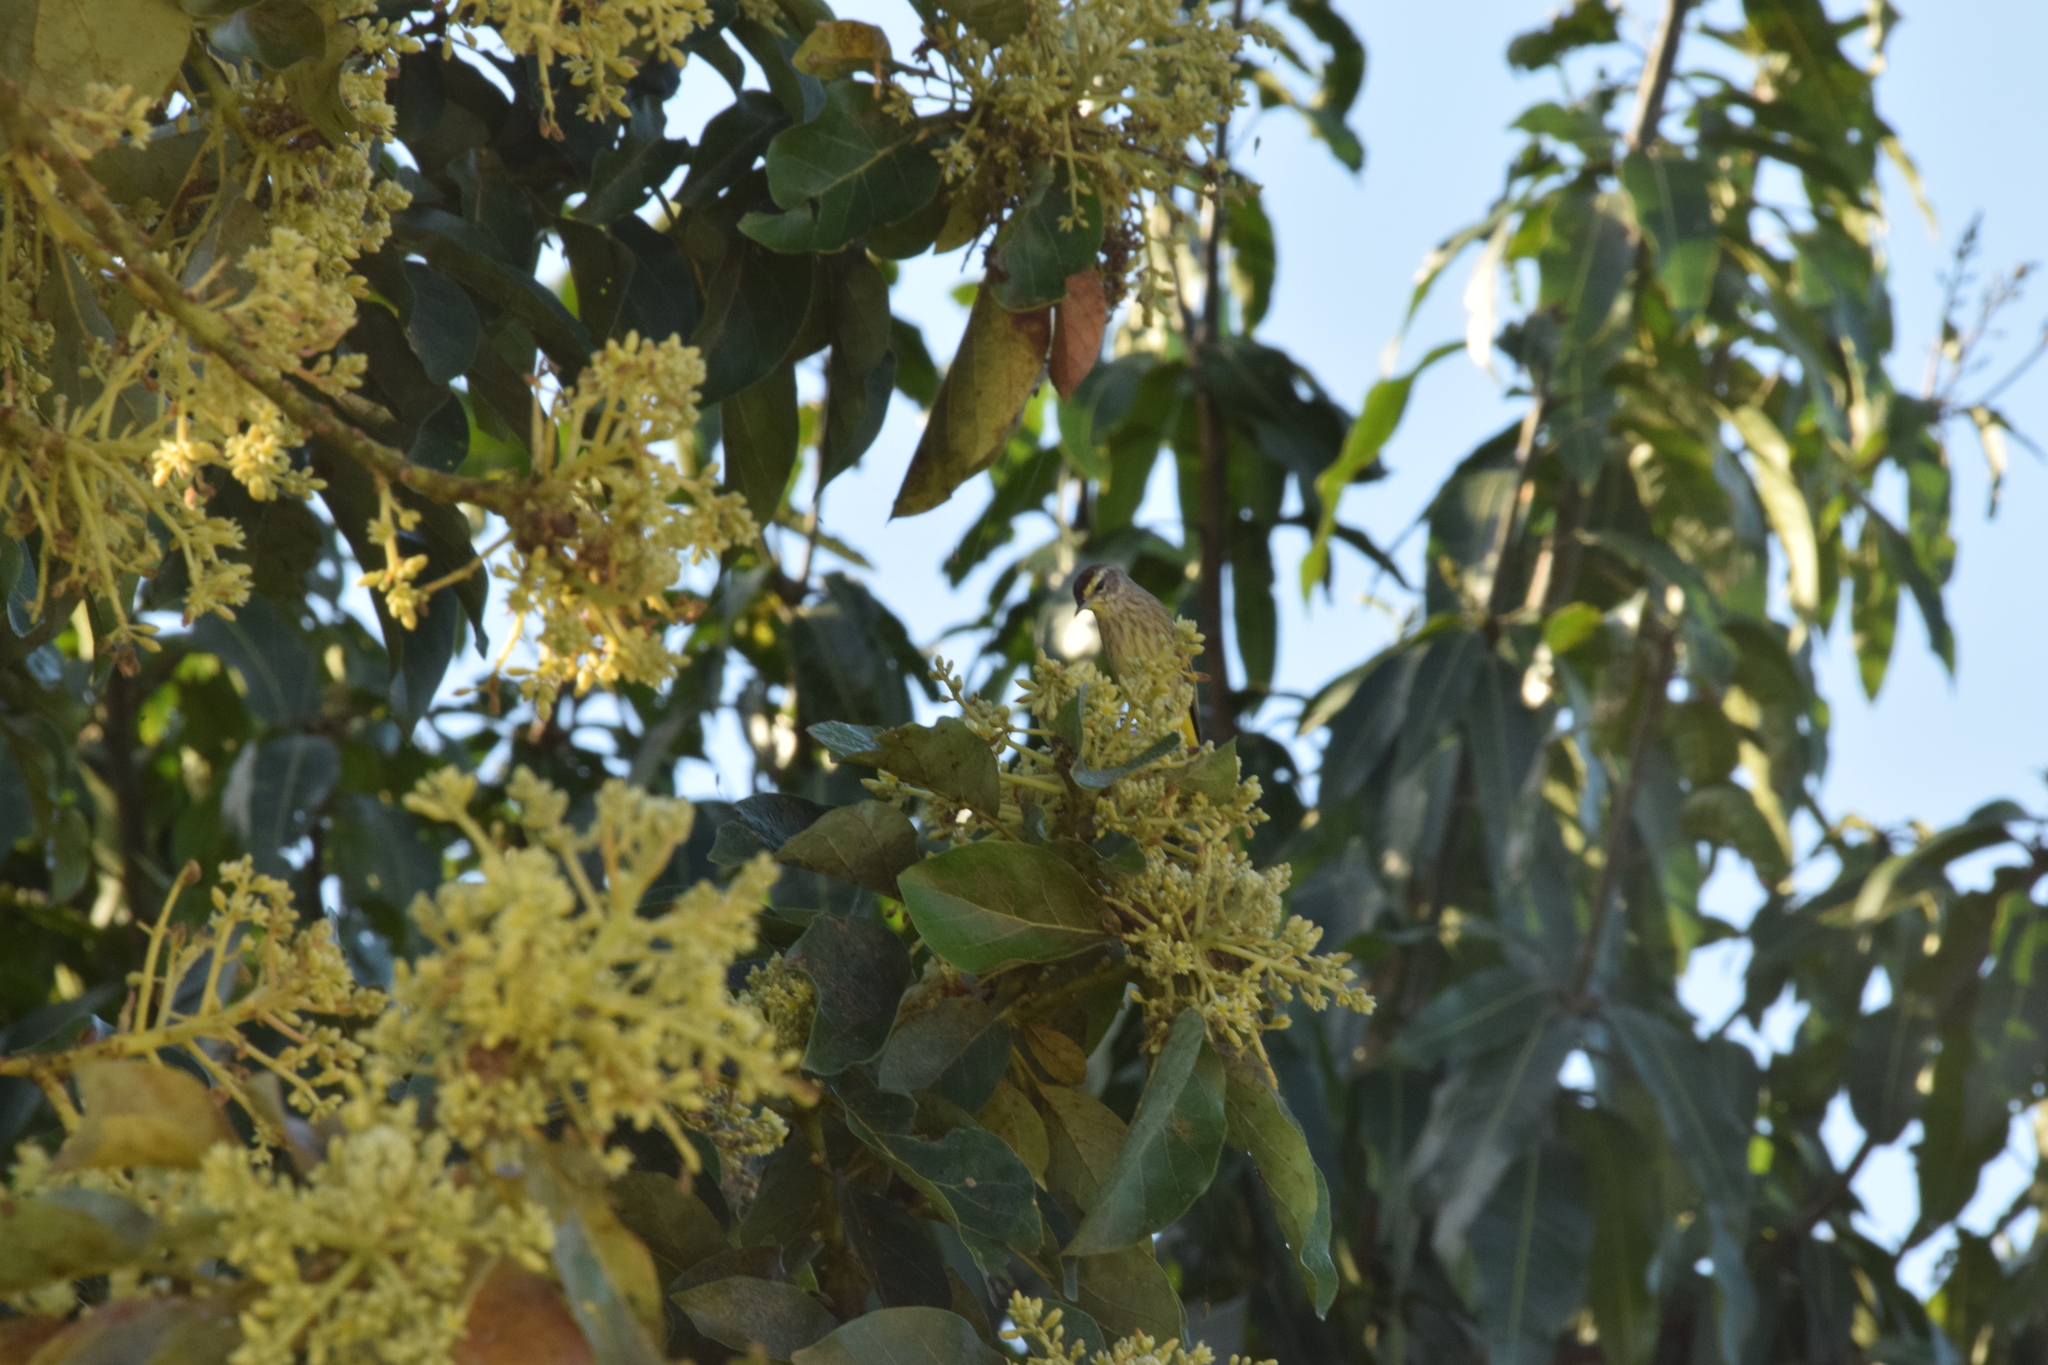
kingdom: Animalia
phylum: Chordata
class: Aves
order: Passeriformes
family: Parulidae
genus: Setophaga
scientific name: Setophaga palmarum
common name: Palm warbler
